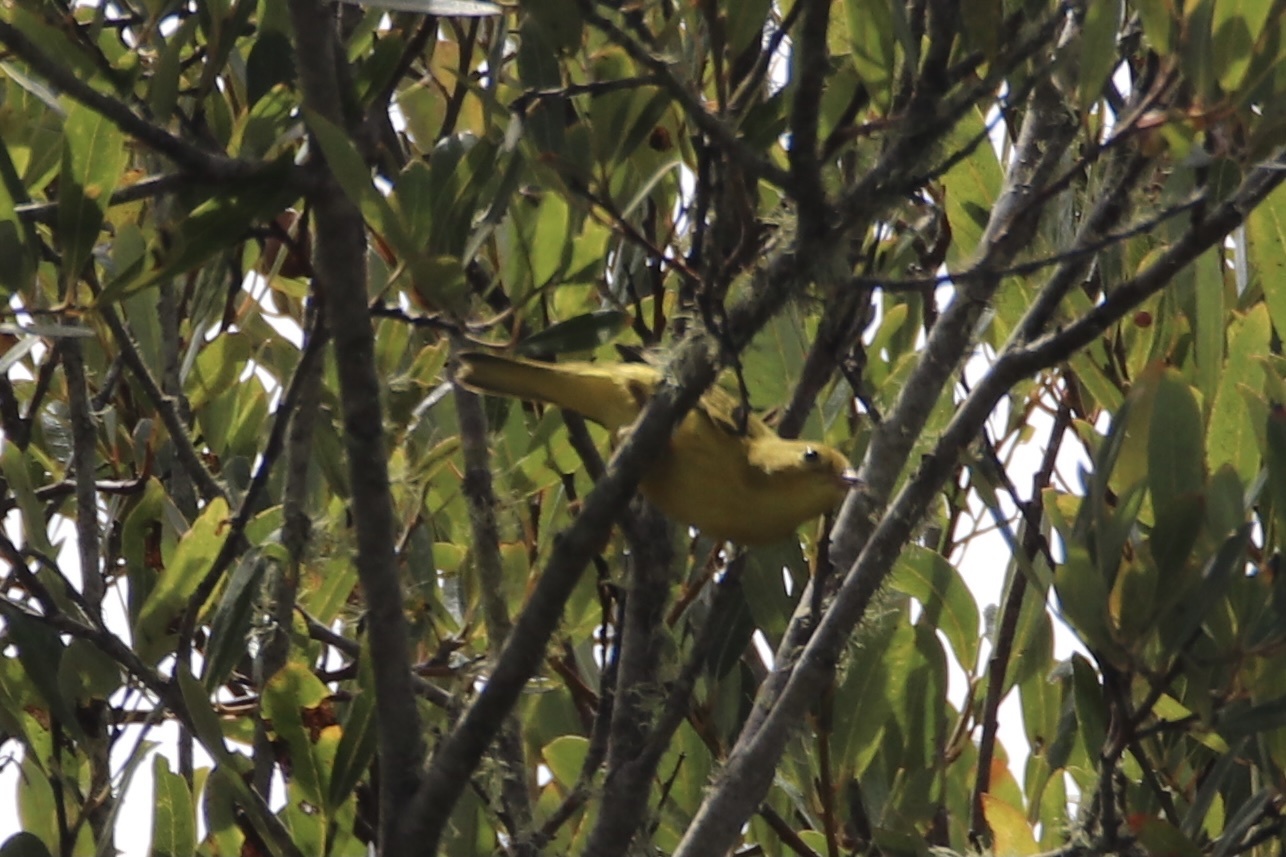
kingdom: Animalia
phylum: Chordata
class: Aves
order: Passeriformes
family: Parulidae
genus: Setophaga
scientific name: Setophaga petechia
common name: Yellow warbler
